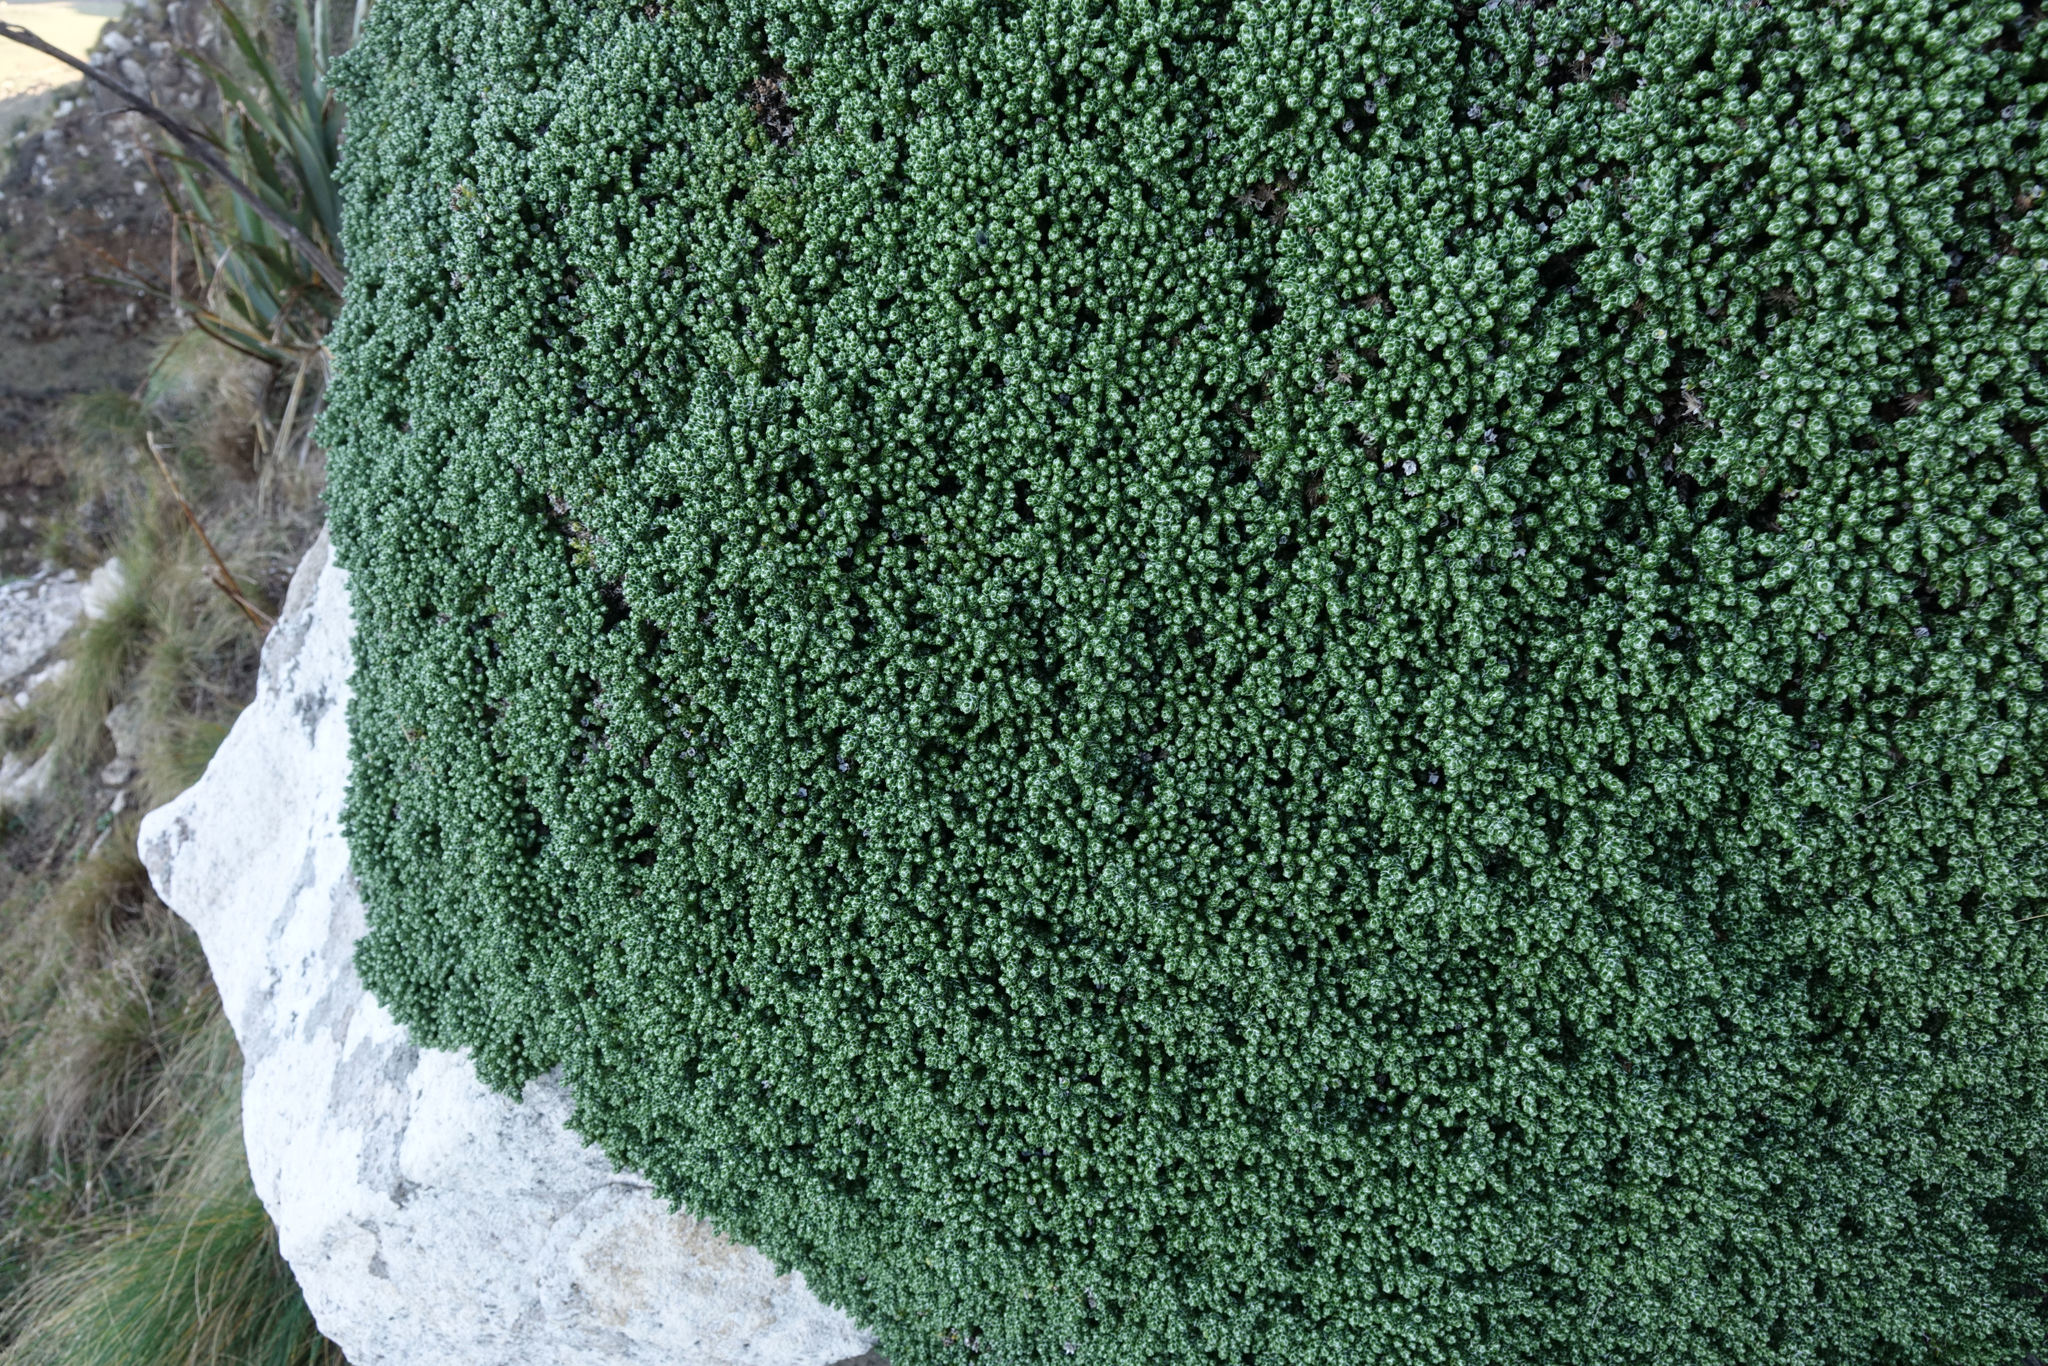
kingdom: Plantae
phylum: Tracheophyta
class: Magnoliopsida
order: Asterales
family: Asteraceae
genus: Ozothamnus
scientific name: Ozothamnus selago
